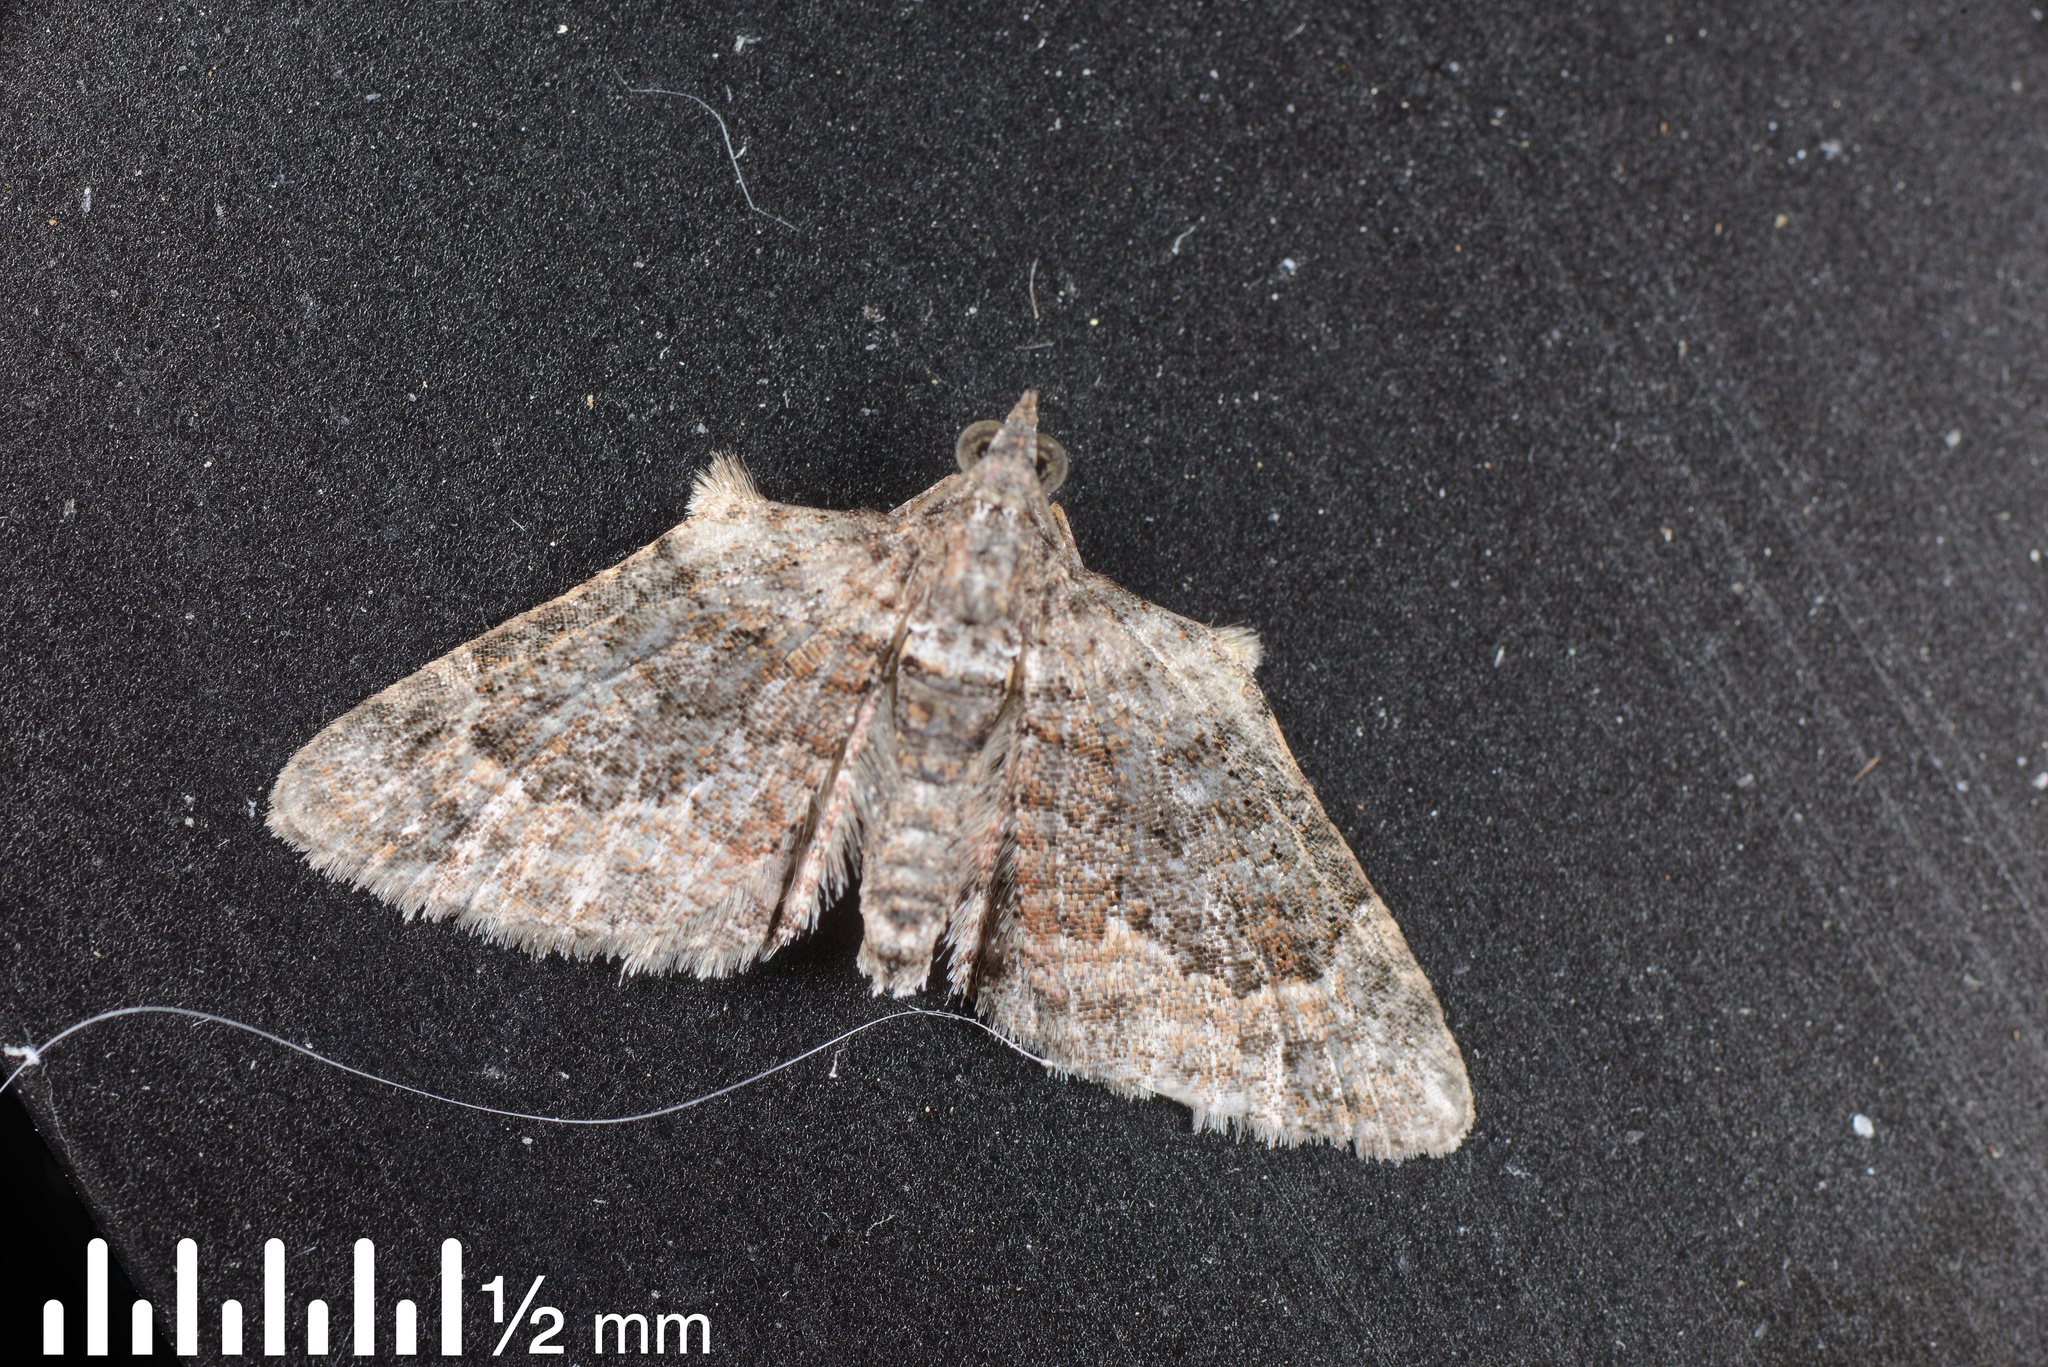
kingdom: Animalia
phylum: Arthropoda
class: Insecta
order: Lepidoptera
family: Geometridae
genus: Phrissogonus
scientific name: Phrissogonus laticostata
